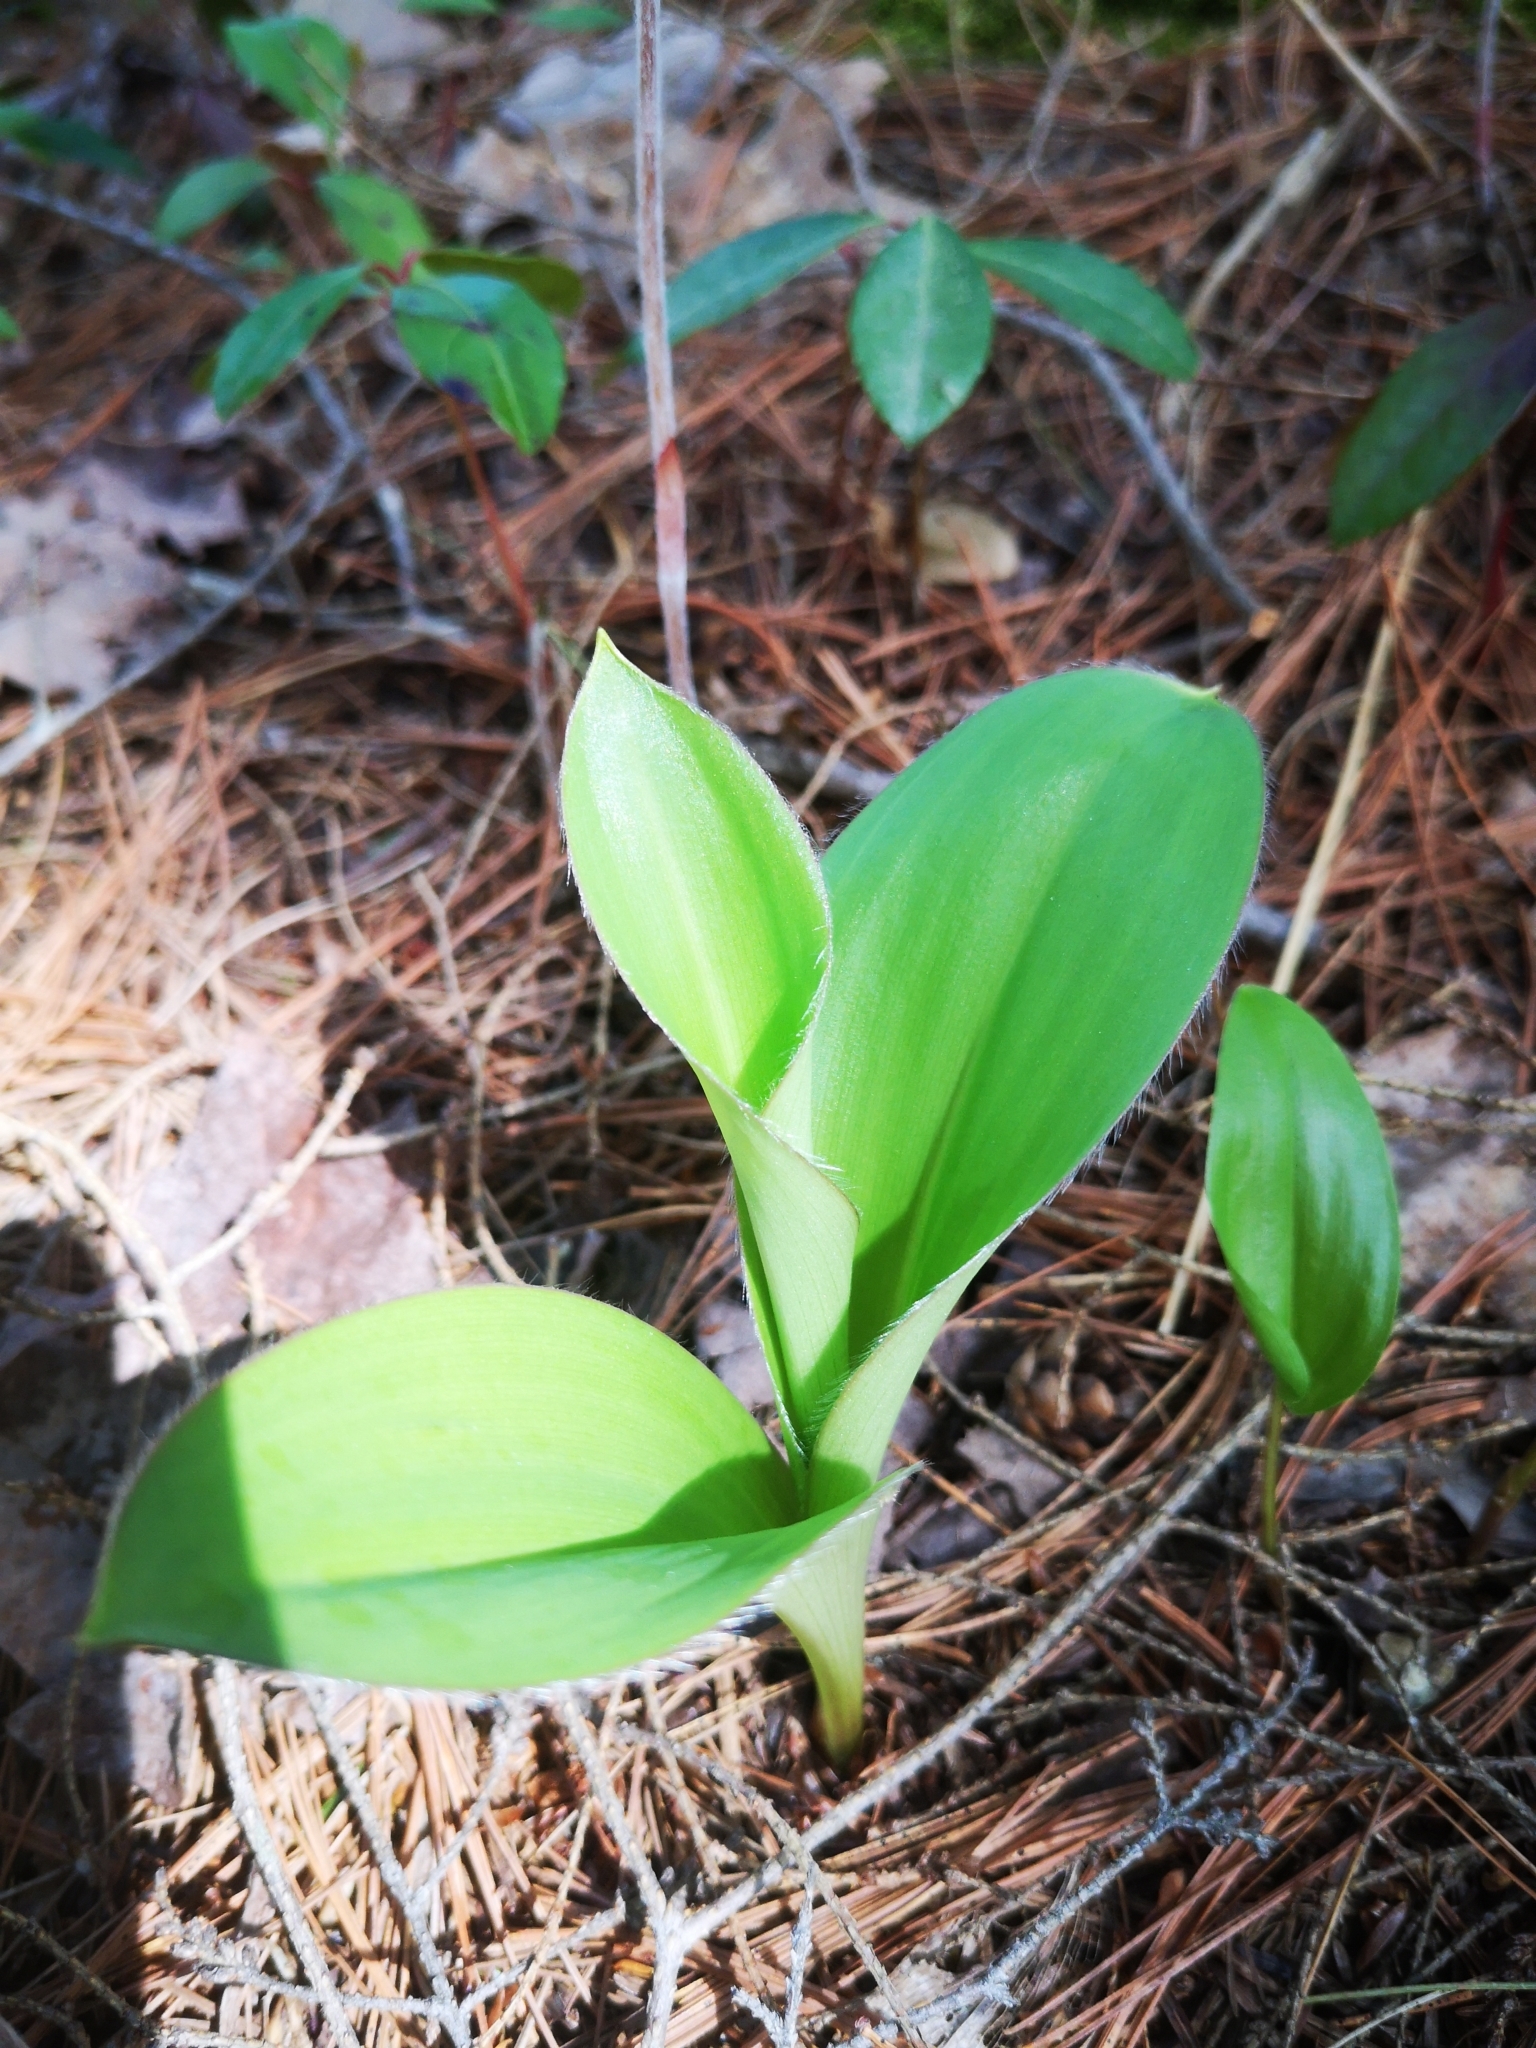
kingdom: Plantae
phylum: Tracheophyta
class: Liliopsida
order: Liliales
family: Liliaceae
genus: Clintonia
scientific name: Clintonia borealis
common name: Yellow clintonia
